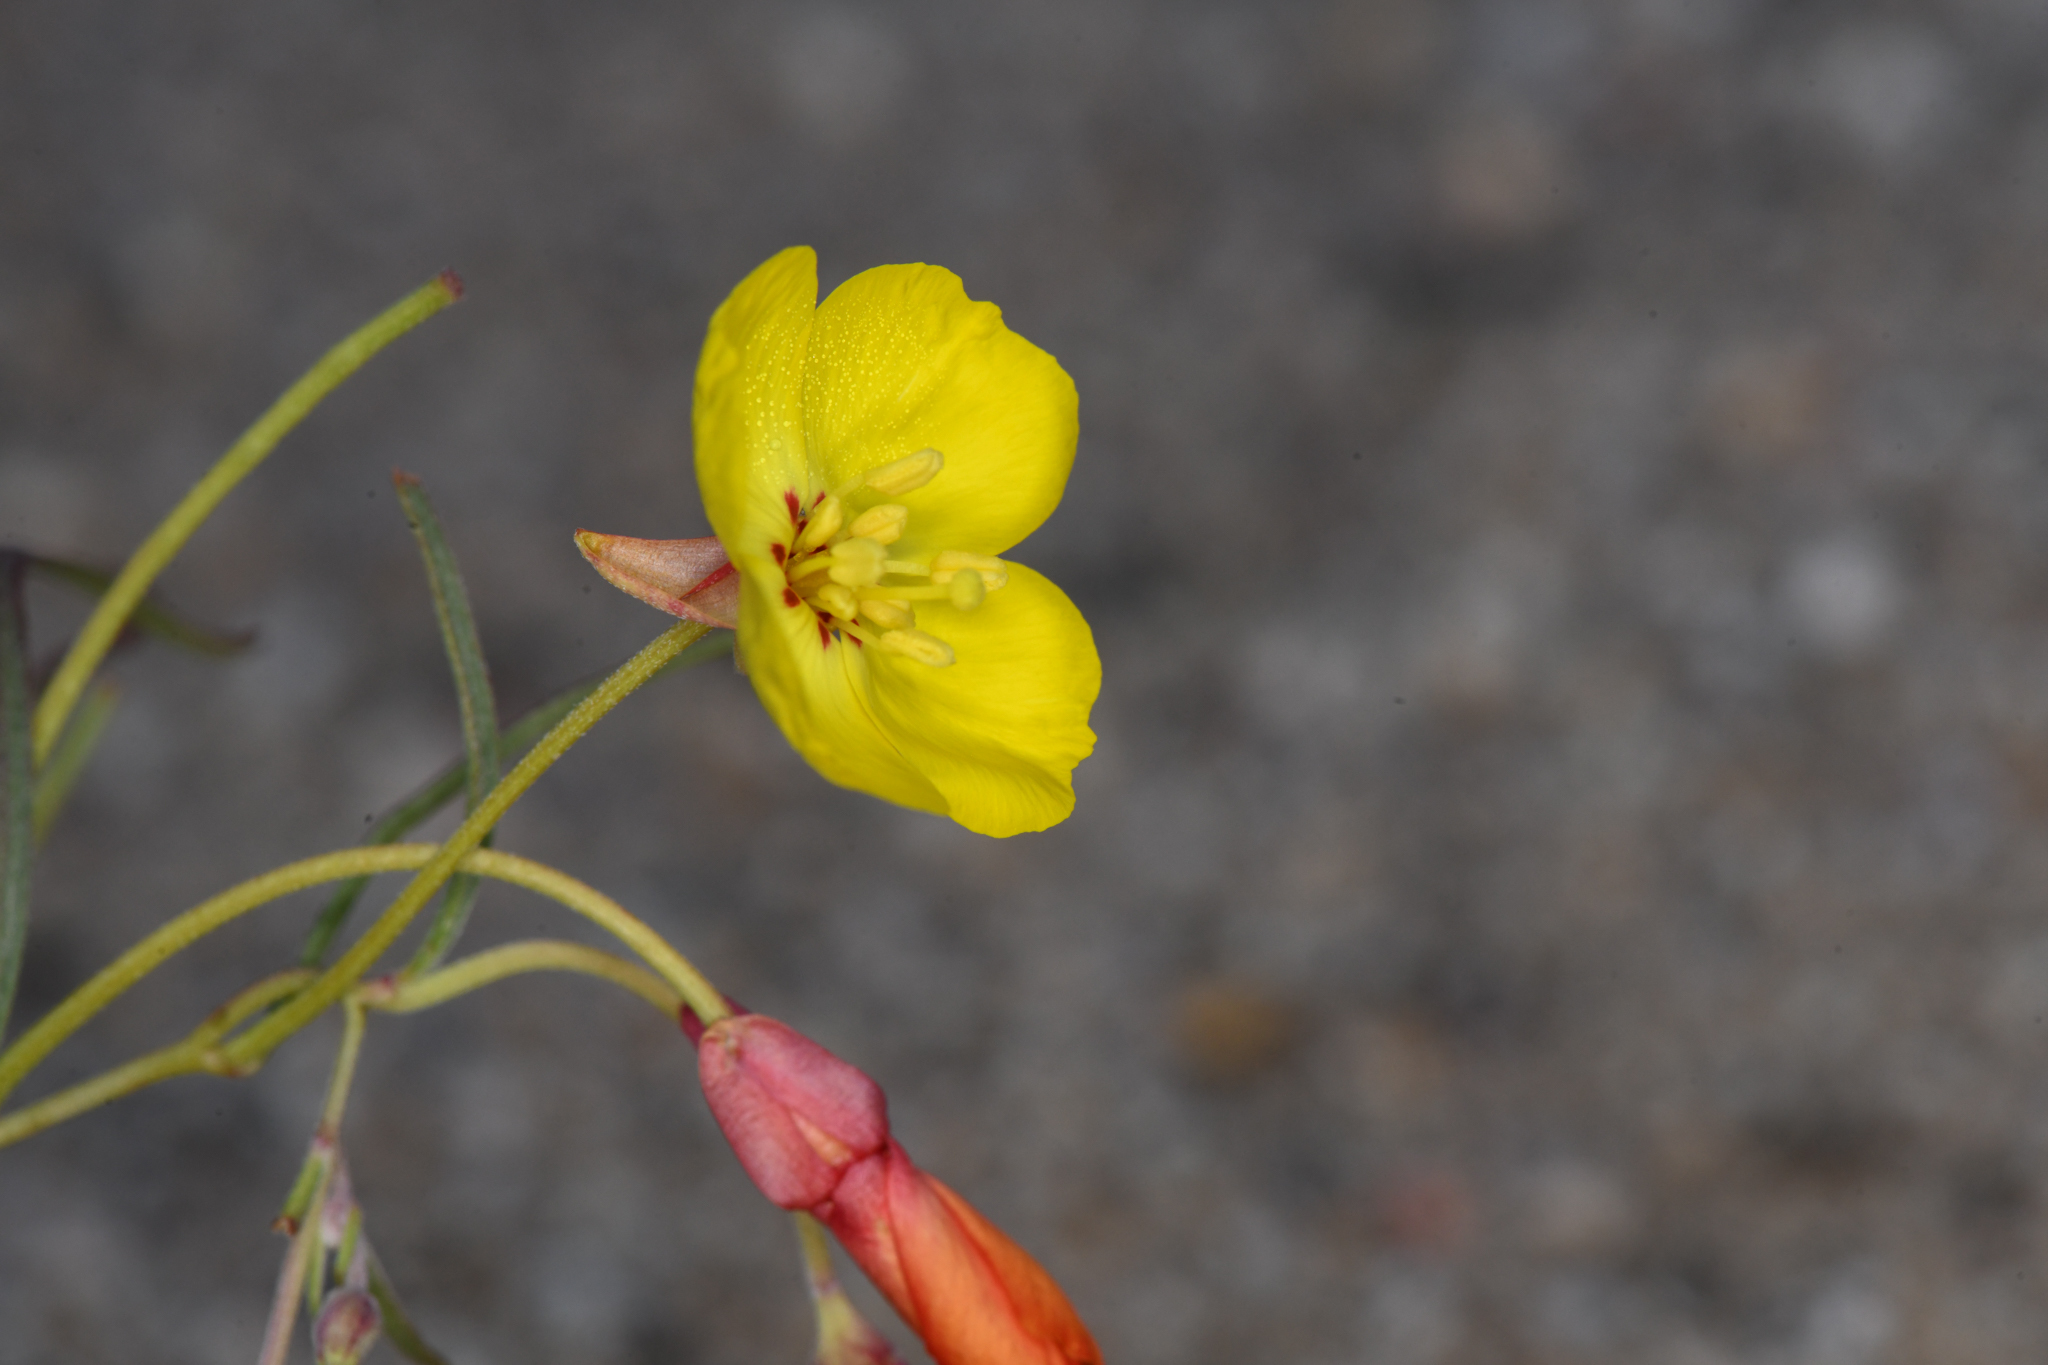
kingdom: Plantae
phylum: Tracheophyta
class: Magnoliopsida
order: Myrtales
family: Onagraceae
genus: Camissonia
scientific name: Camissonia integrifolia
